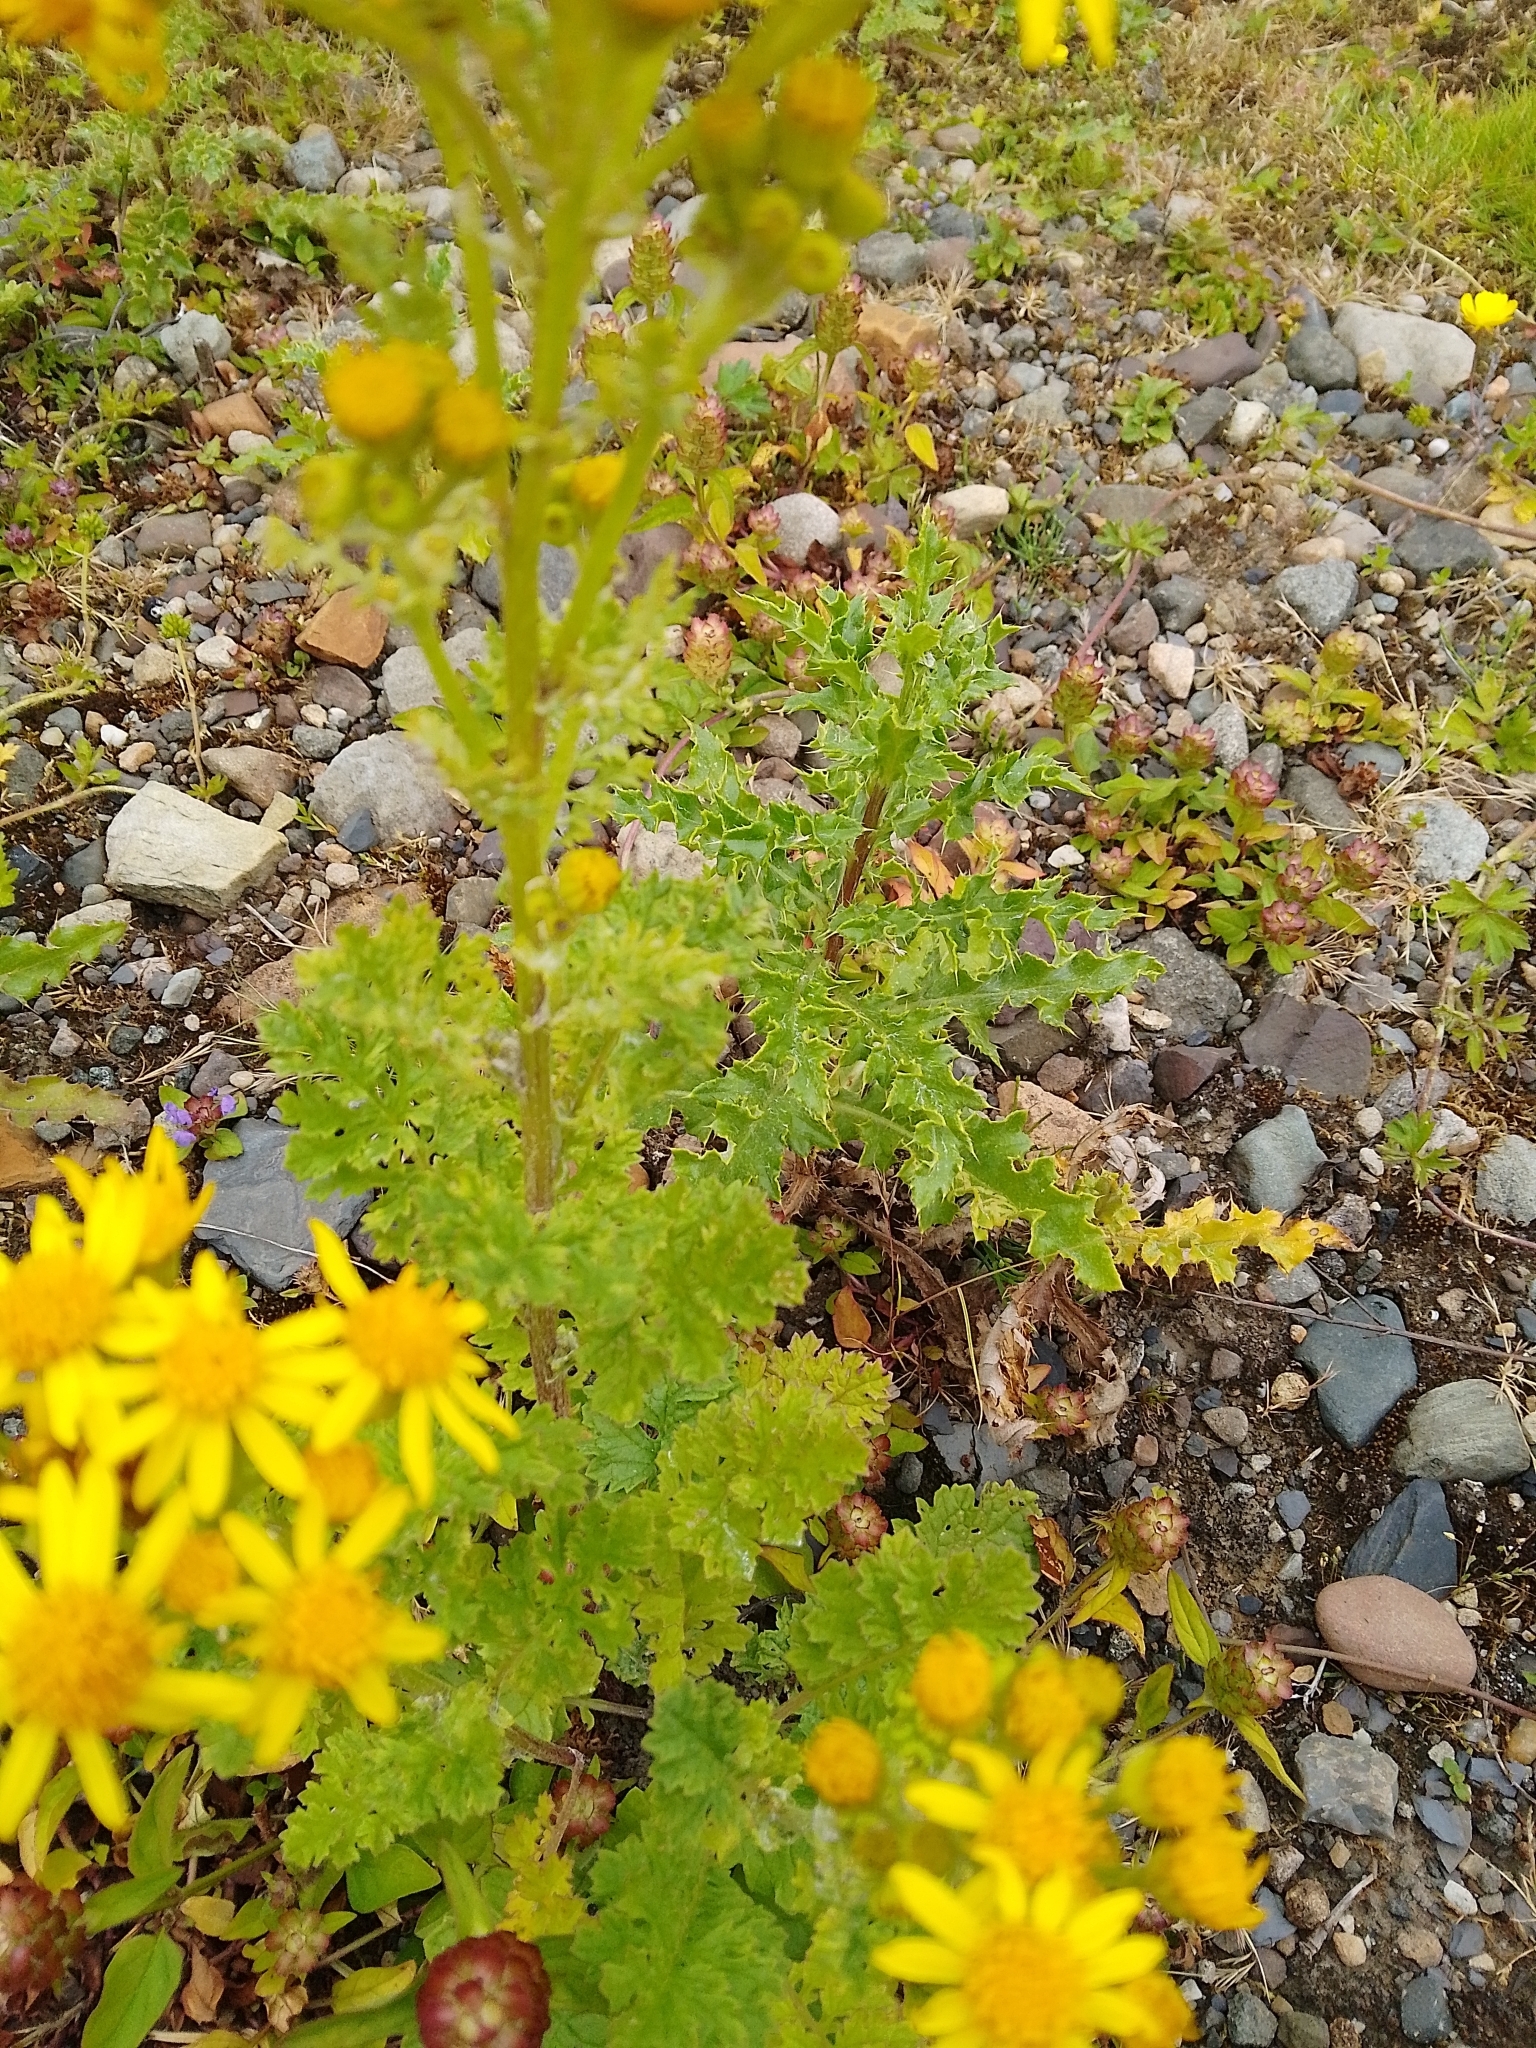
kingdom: Plantae
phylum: Tracheophyta
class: Magnoliopsida
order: Asterales
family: Asteraceae
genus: Jacobaea
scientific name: Jacobaea vulgaris
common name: Stinking willie
